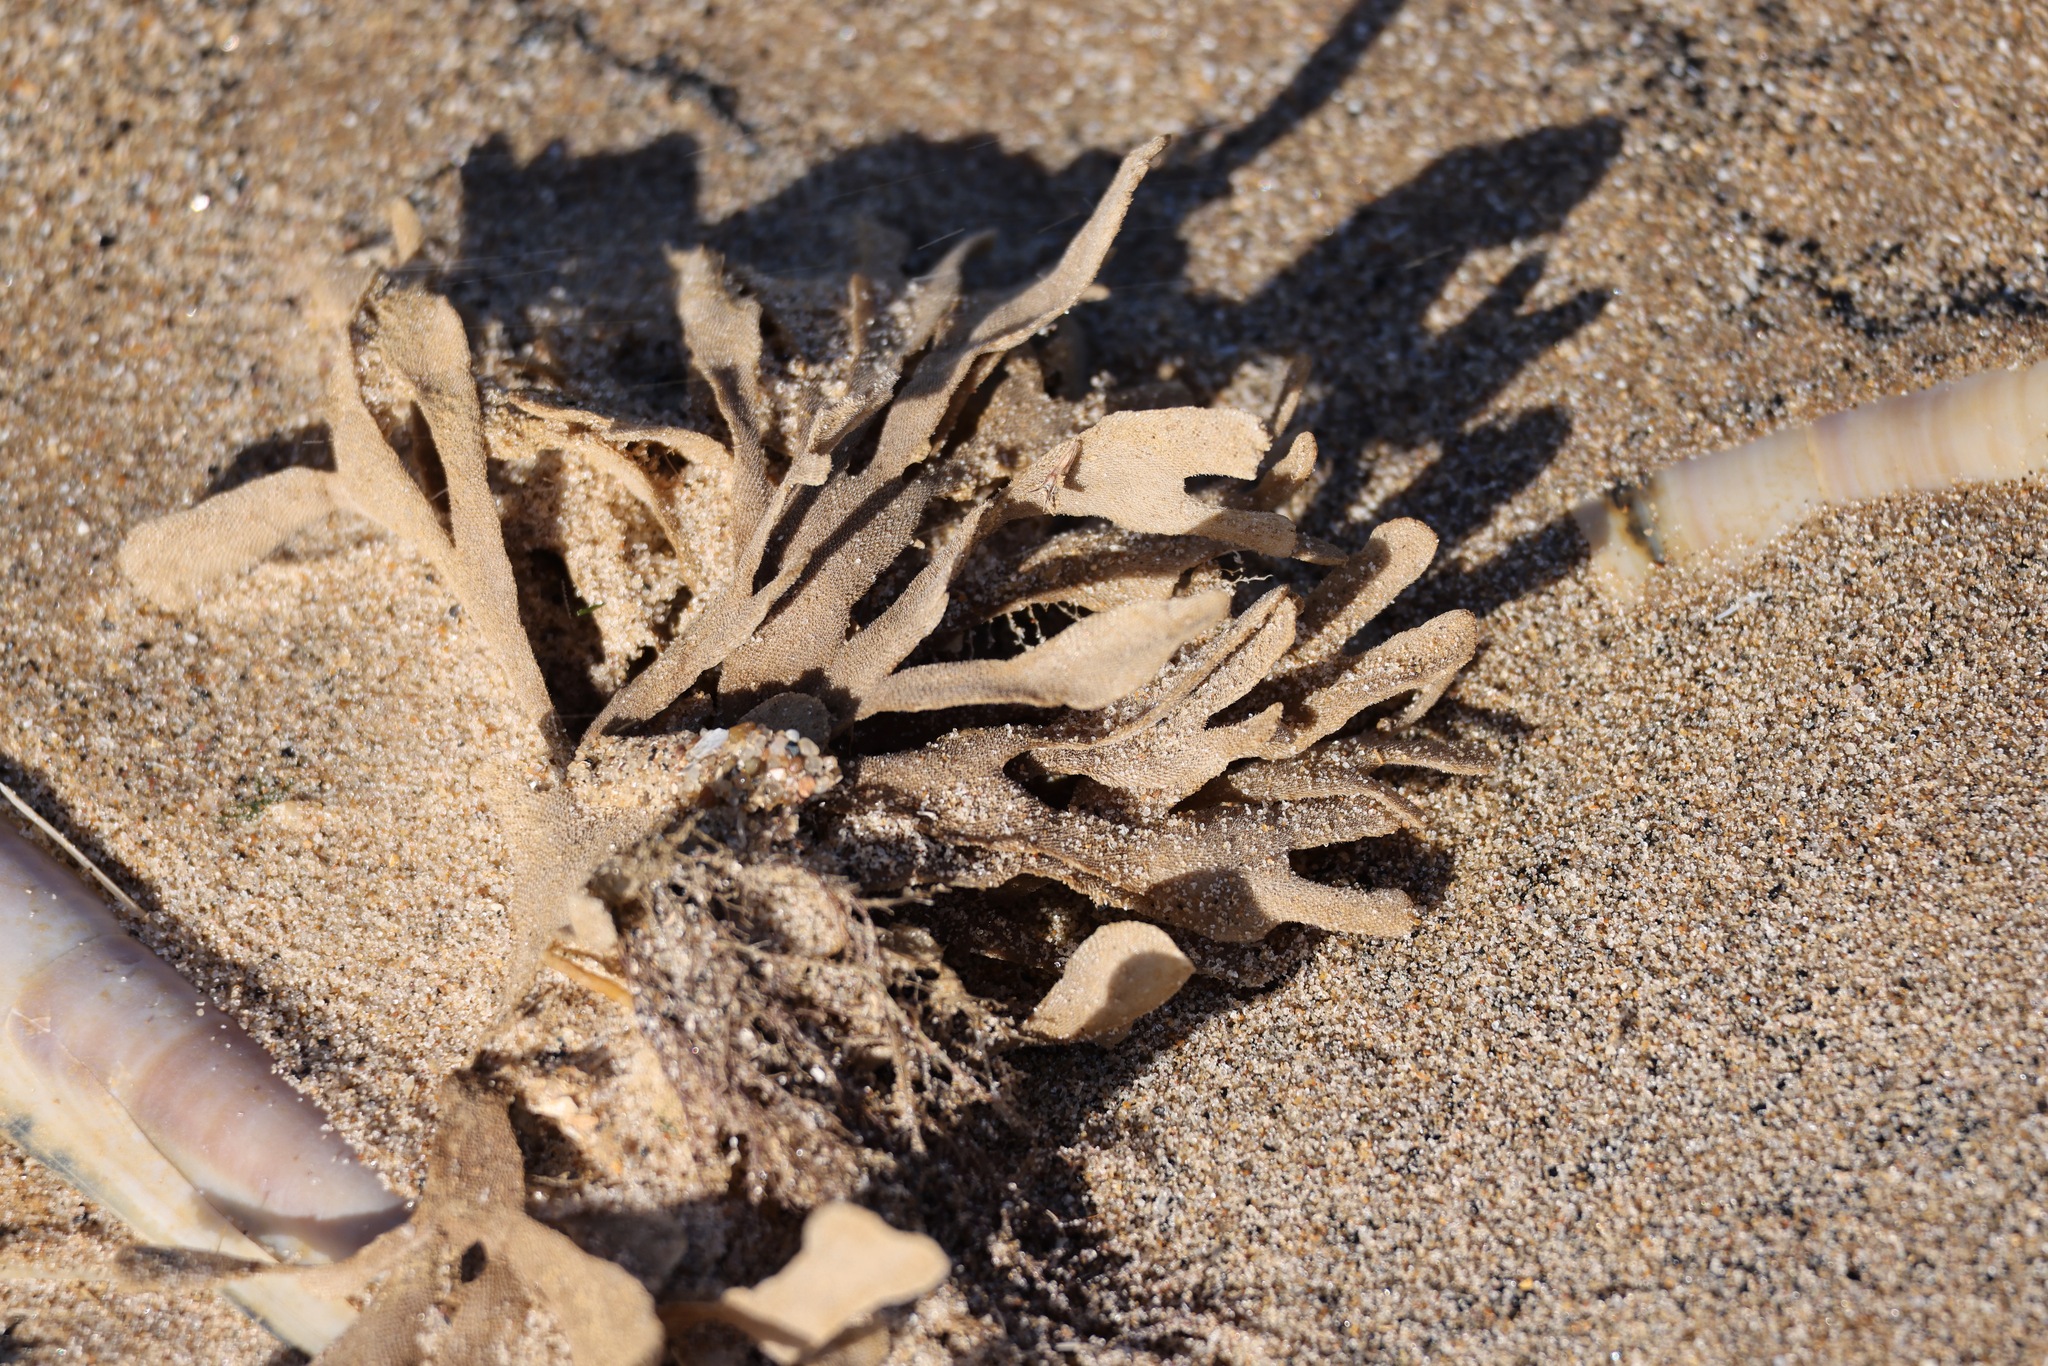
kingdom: Animalia
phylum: Bryozoa
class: Gymnolaemata
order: Cheilostomatida
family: Flustridae
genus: Flustra
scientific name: Flustra foliacea
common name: Hornwrack
